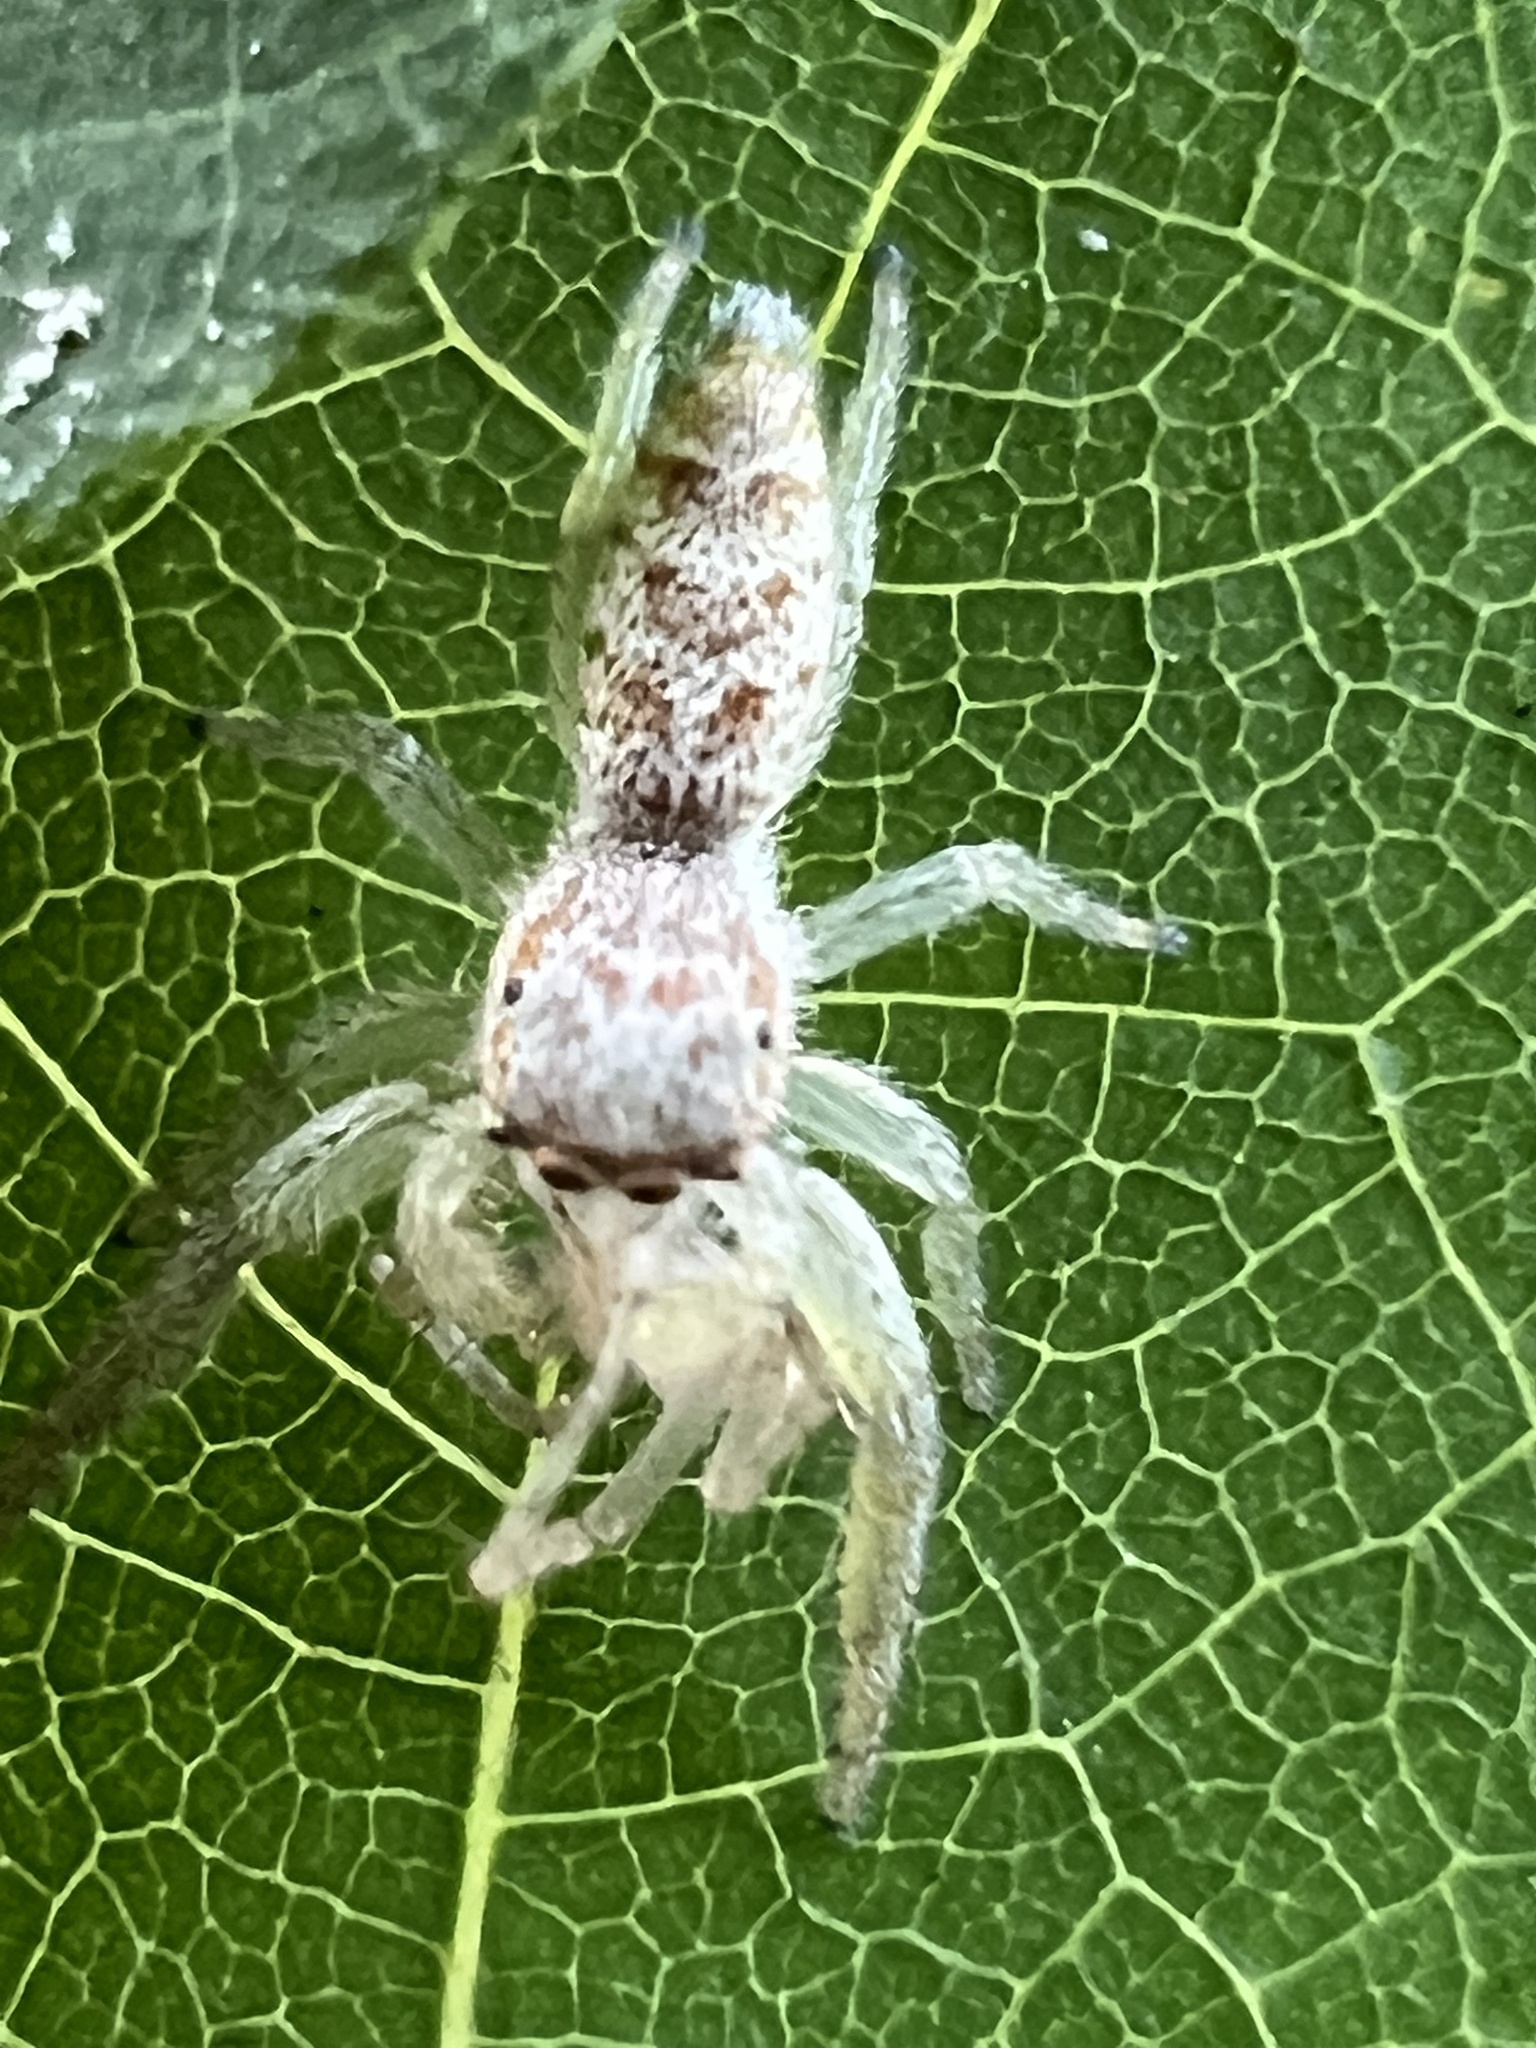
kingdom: Animalia
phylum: Arthropoda
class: Arachnida
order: Araneae
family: Salticidae
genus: Hentzia
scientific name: Hentzia mitrata
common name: White-jawed jumping spider
